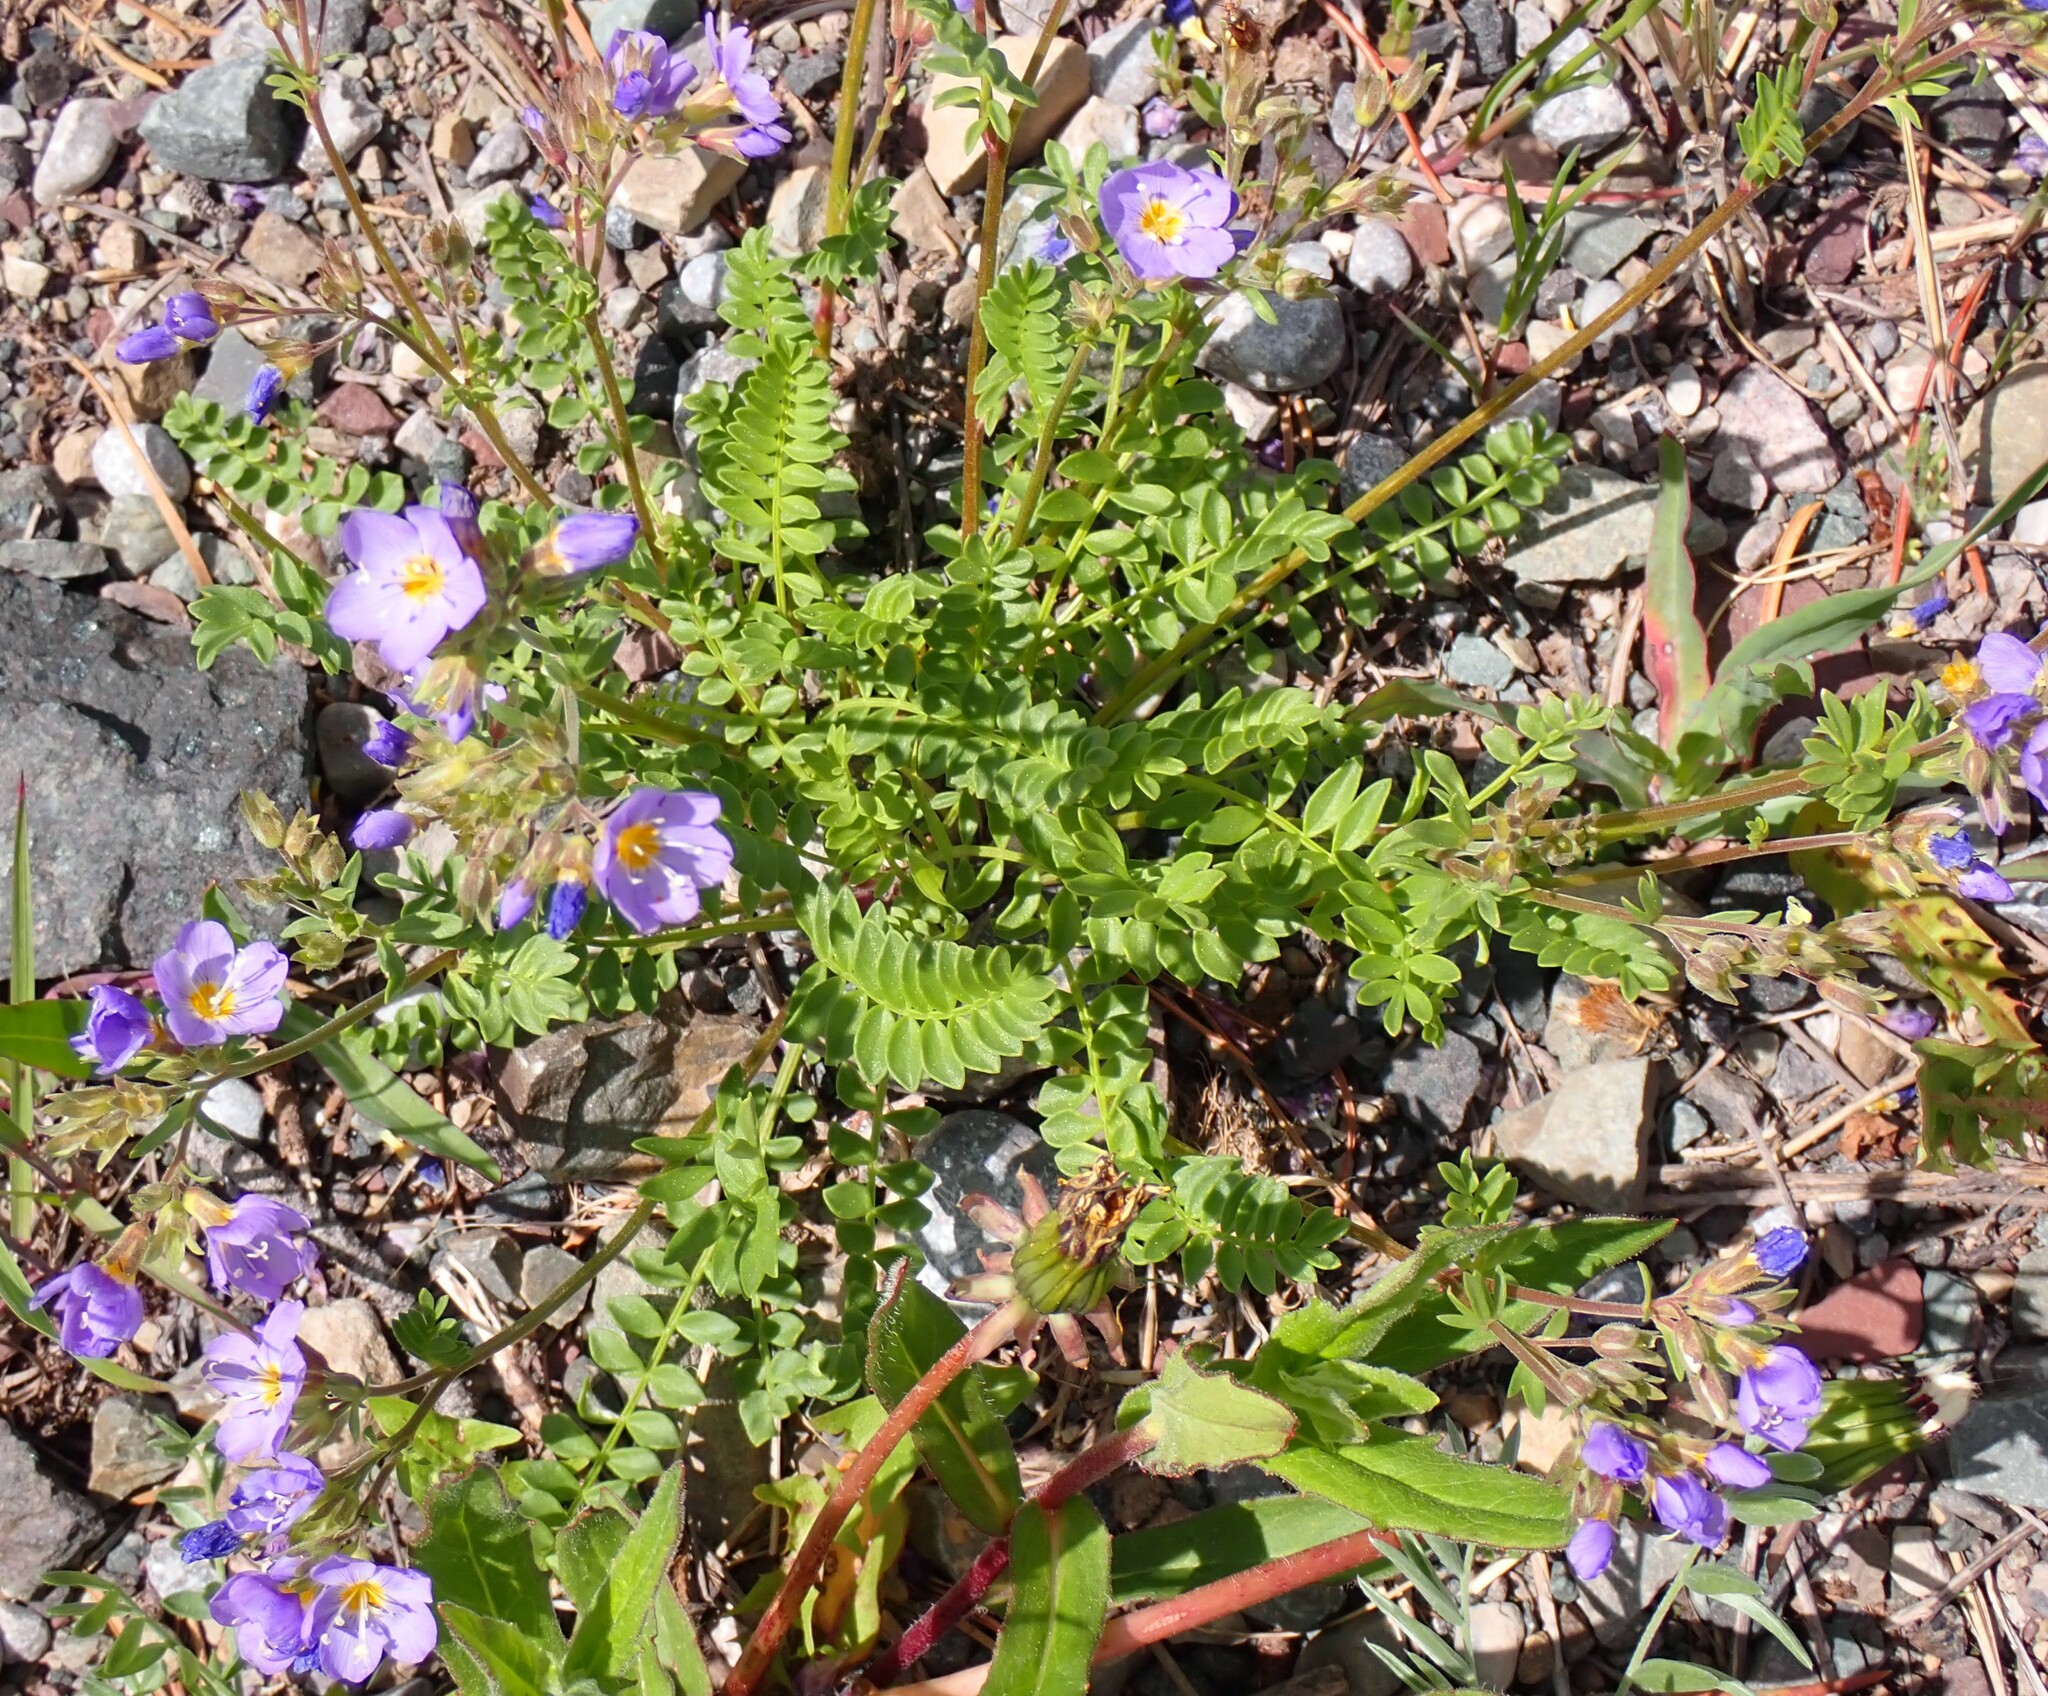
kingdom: Plantae
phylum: Tracheophyta
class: Magnoliopsida
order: Ericales
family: Polemoniaceae
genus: Polemonium
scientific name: Polemonium pulcherrimum
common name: Short jacob's-ladder
